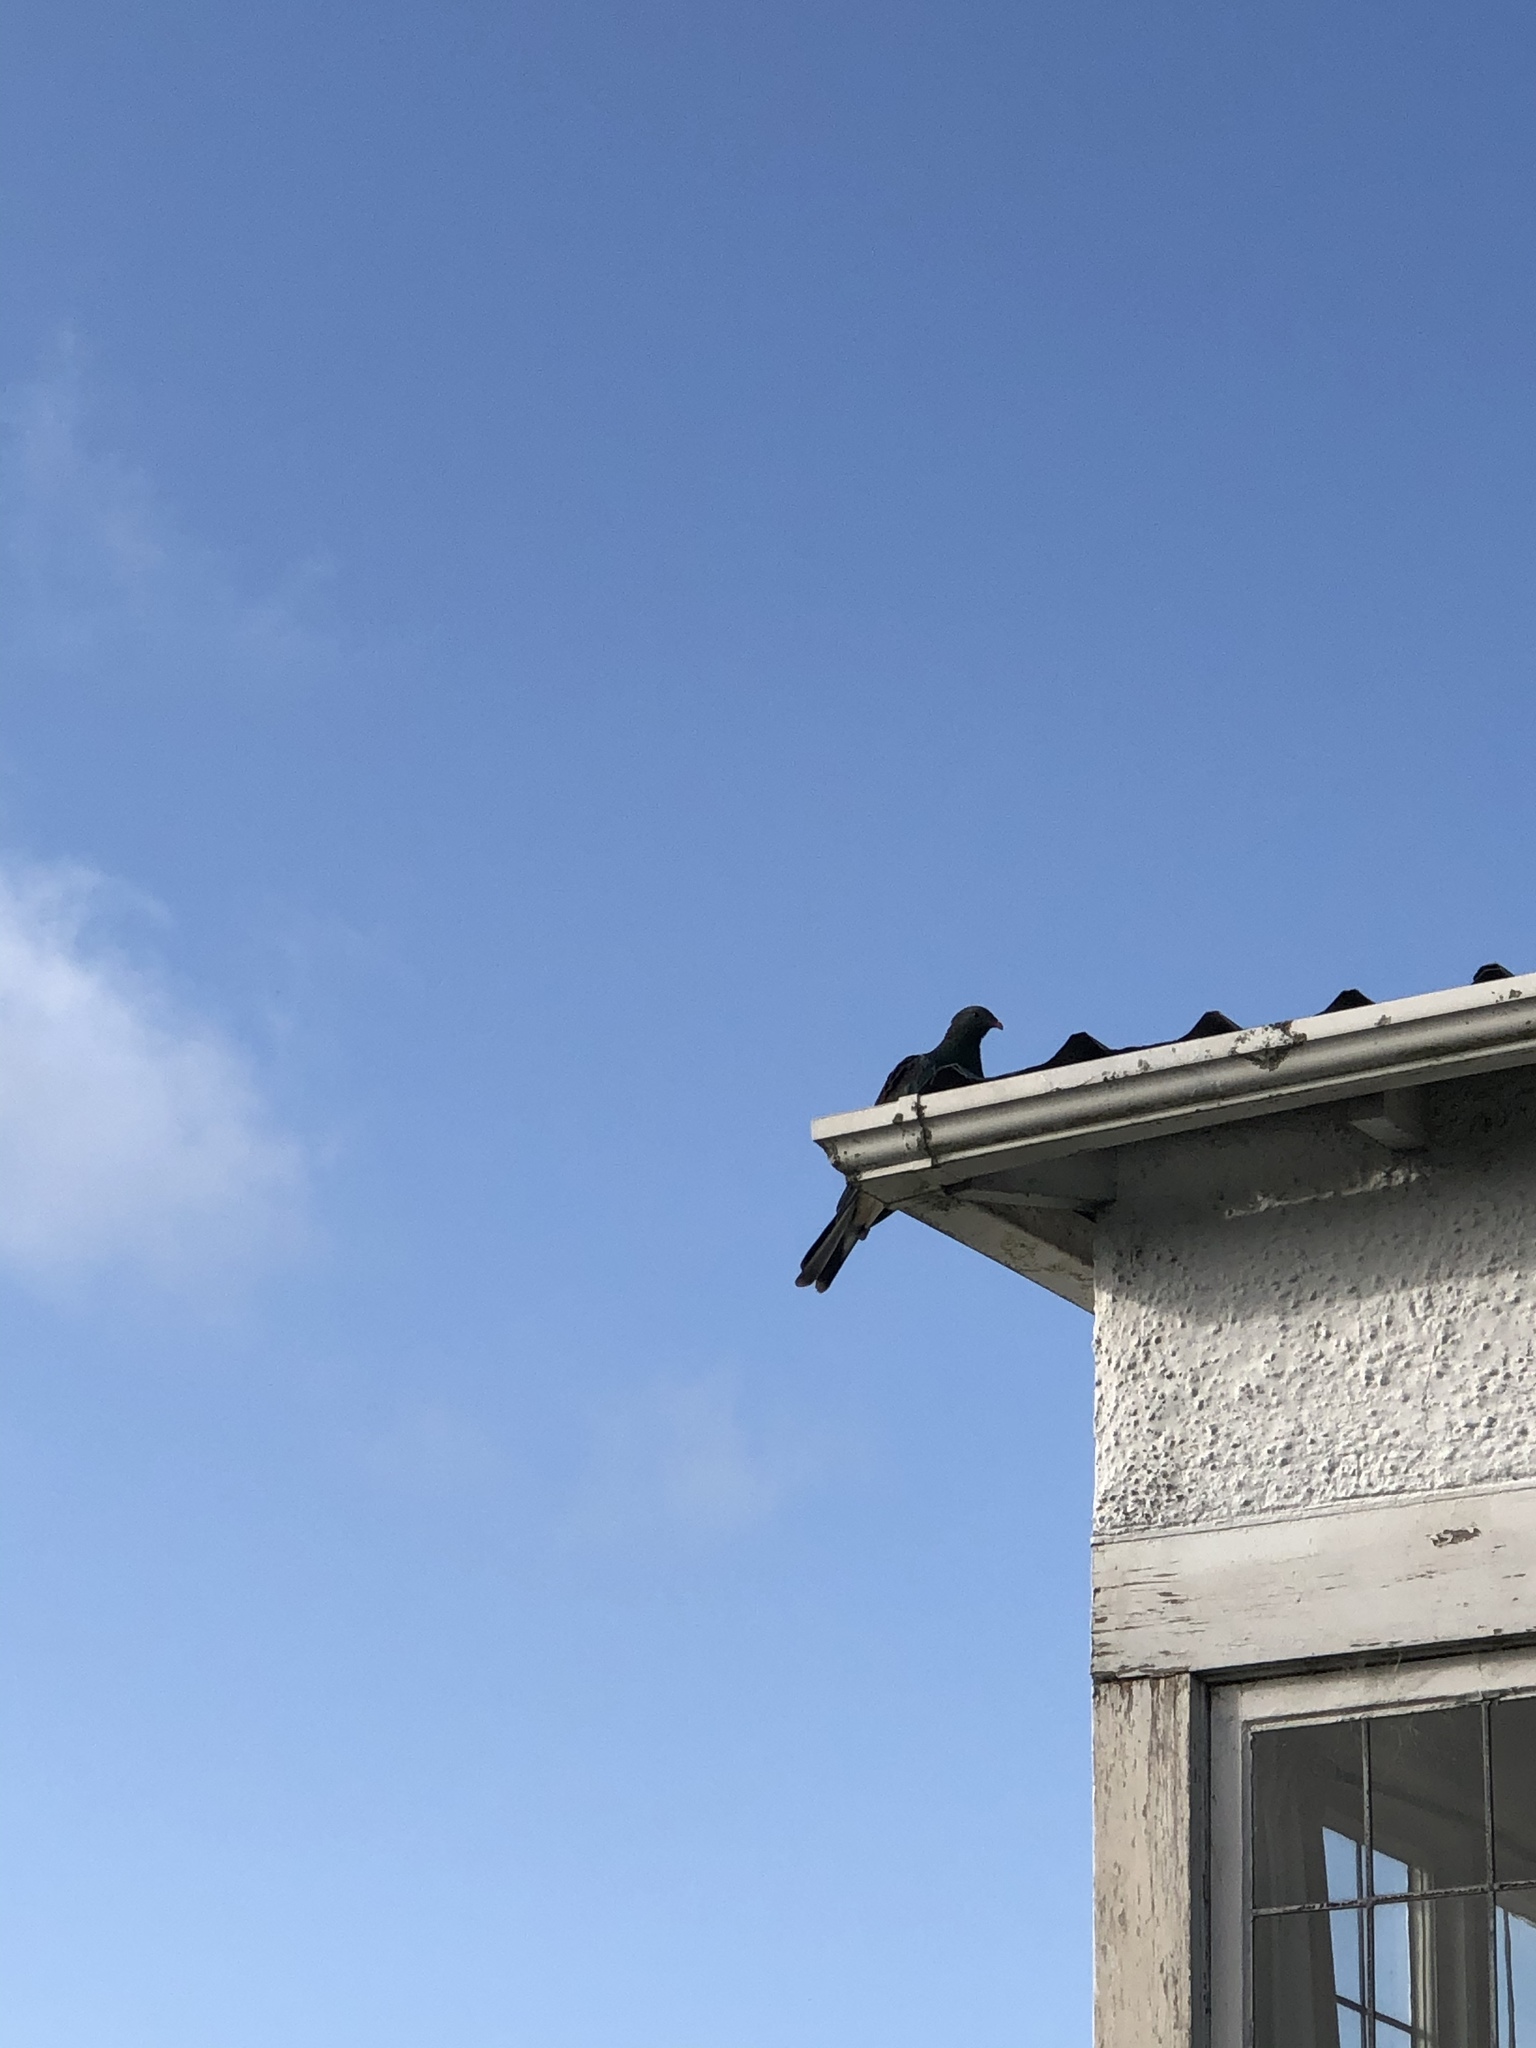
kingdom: Animalia
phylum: Chordata
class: Aves
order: Columbiformes
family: Columbidae
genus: Hemiphaga
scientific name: Hemiphaga novaeseelandiae
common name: New zealand pigeon
